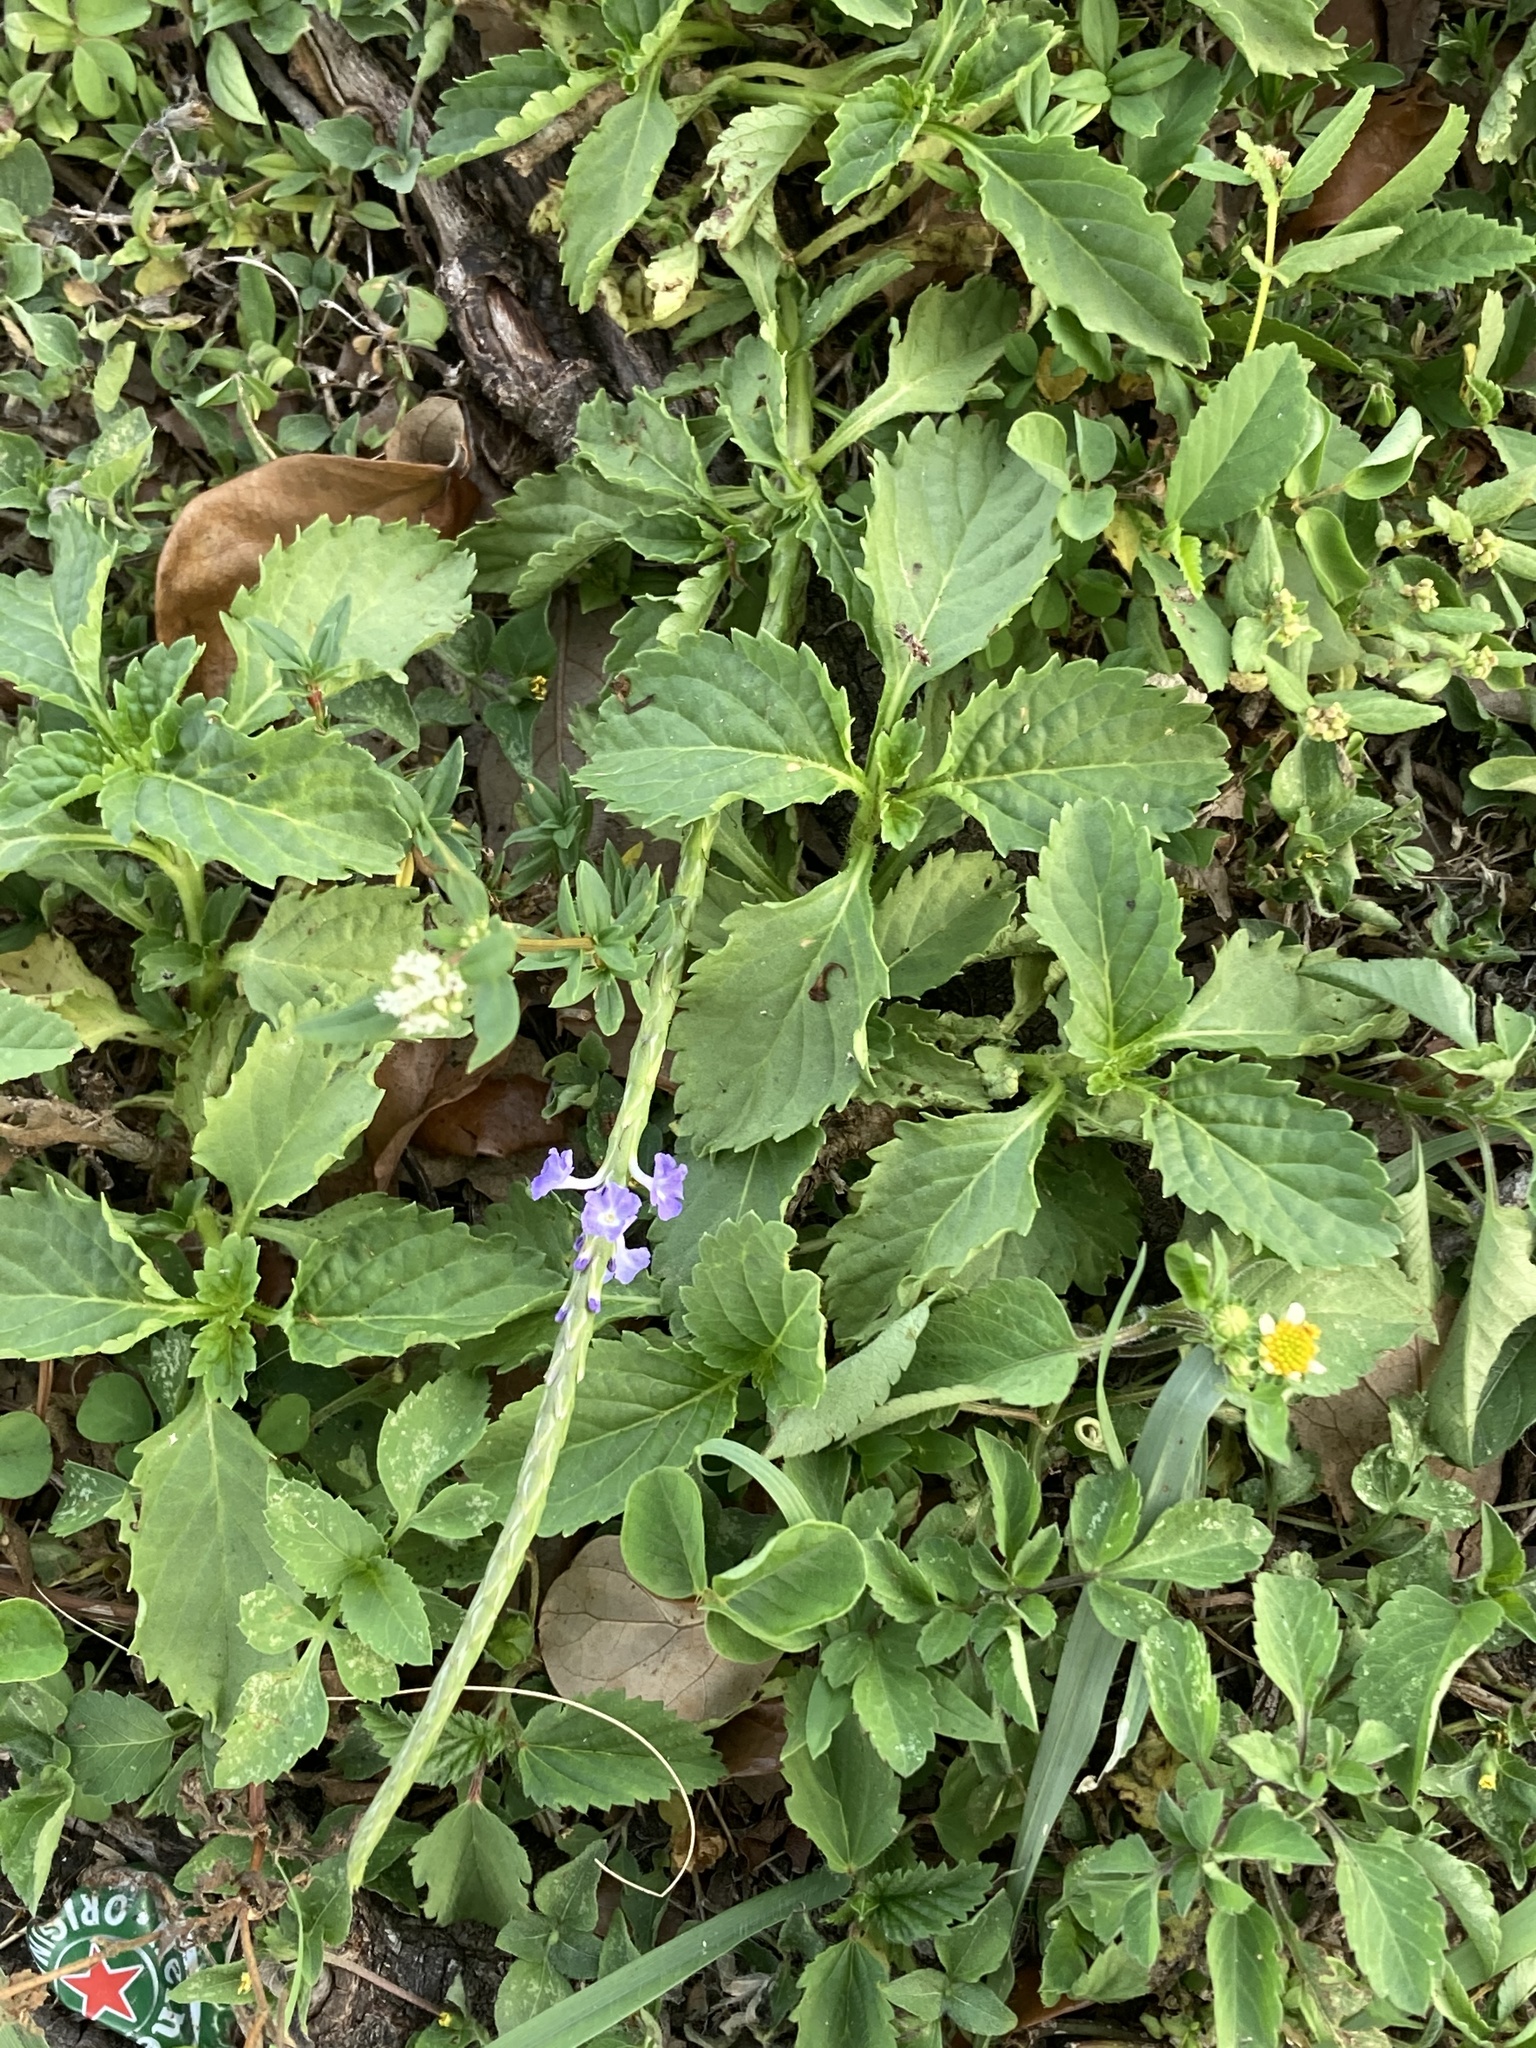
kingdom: Plantae
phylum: Tracheophyta
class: Magnoliopsida
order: Lamiales
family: Verbenaceae
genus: Stachytarpheta
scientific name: Stachytarpheta jamaicensis
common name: Light-blue snakeweed
